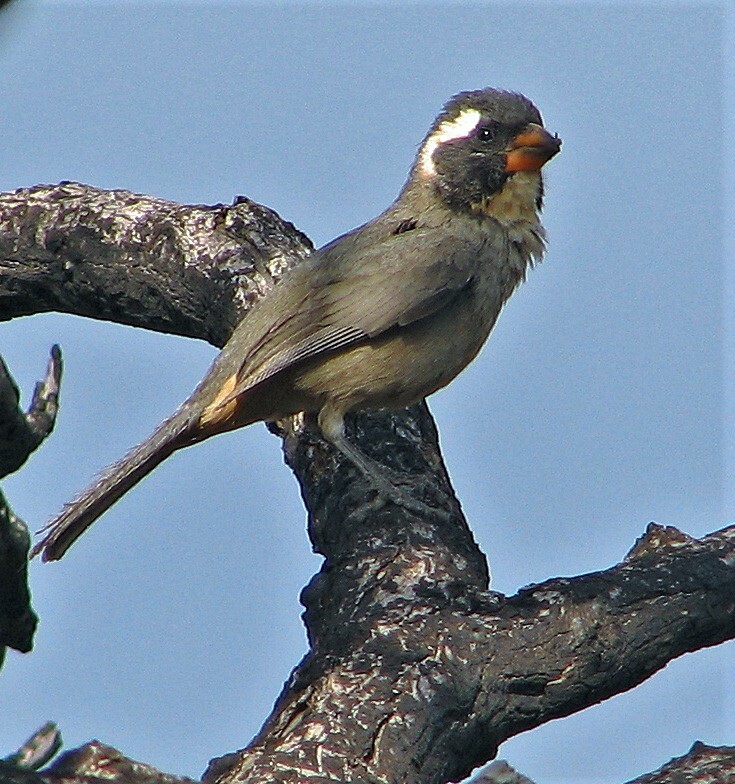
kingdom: Animalia
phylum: Chordata
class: Aves
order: Passeriformes
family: Thraupidae
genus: Saltator
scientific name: Saltator aurantiirostris
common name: Golden-billed saltator
